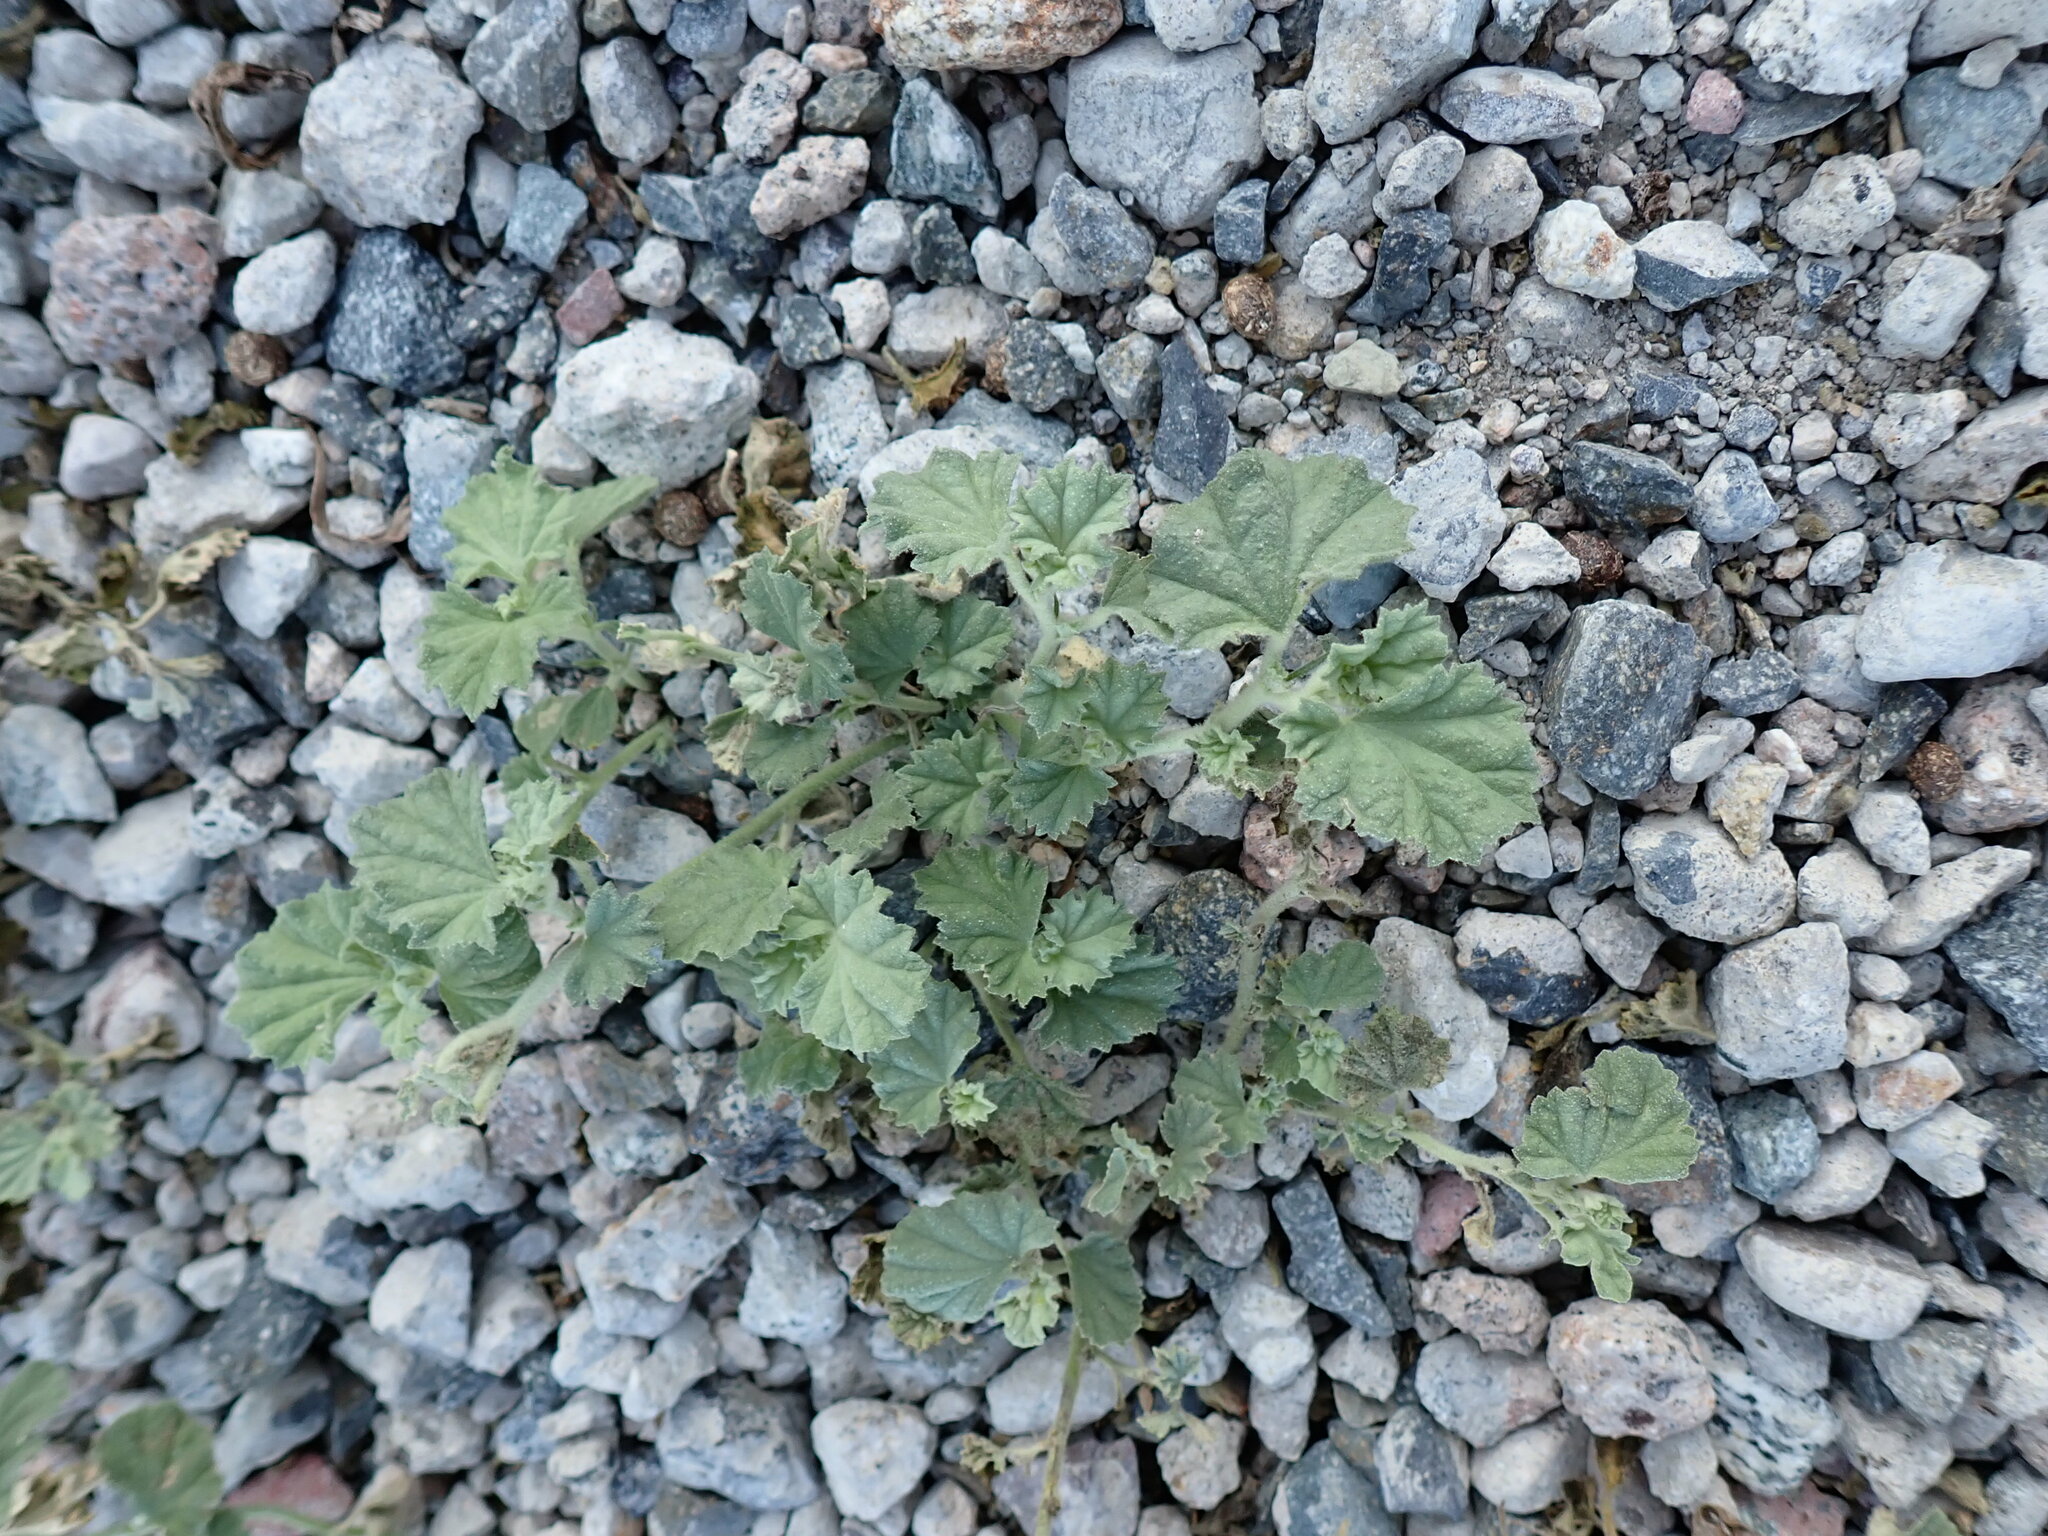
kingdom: Plantae
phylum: Tracheophyta
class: Magnoliopsida
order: Malvales
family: Malvaceae
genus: Malvella
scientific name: Malvella leprosa
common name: Alkali-mallow
